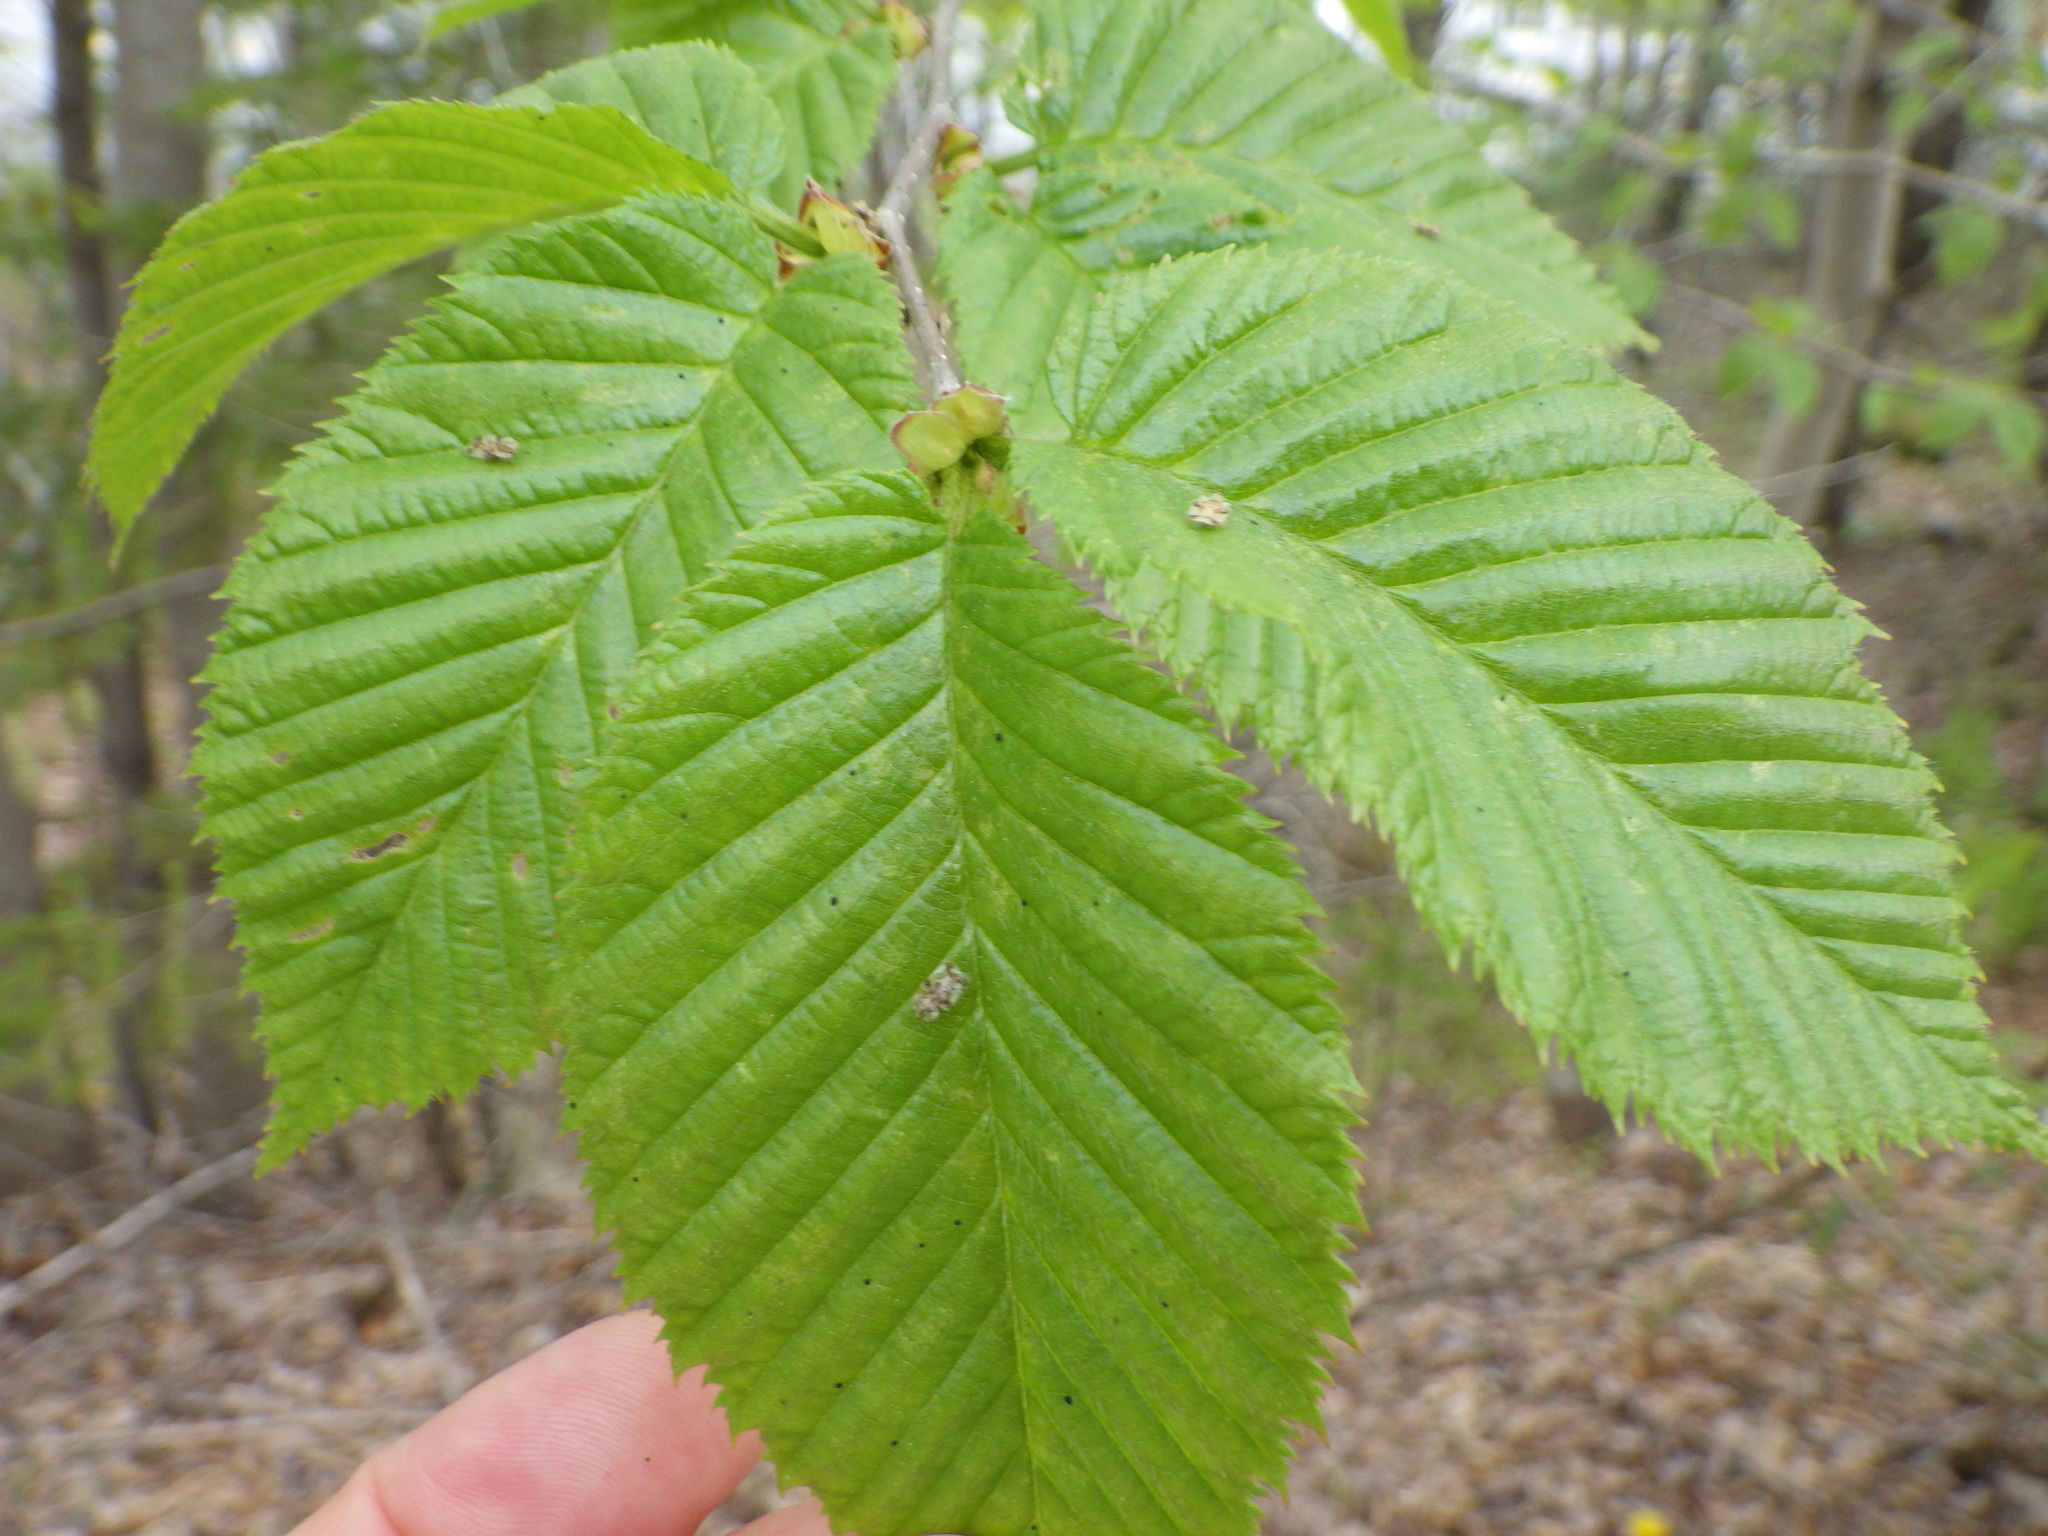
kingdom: Plantae
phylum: Tracheophyta
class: Magnoliopsida
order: Fagales
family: Betulaceae
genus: Betula
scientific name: Betula alleghaniensis
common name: Yellow birch
